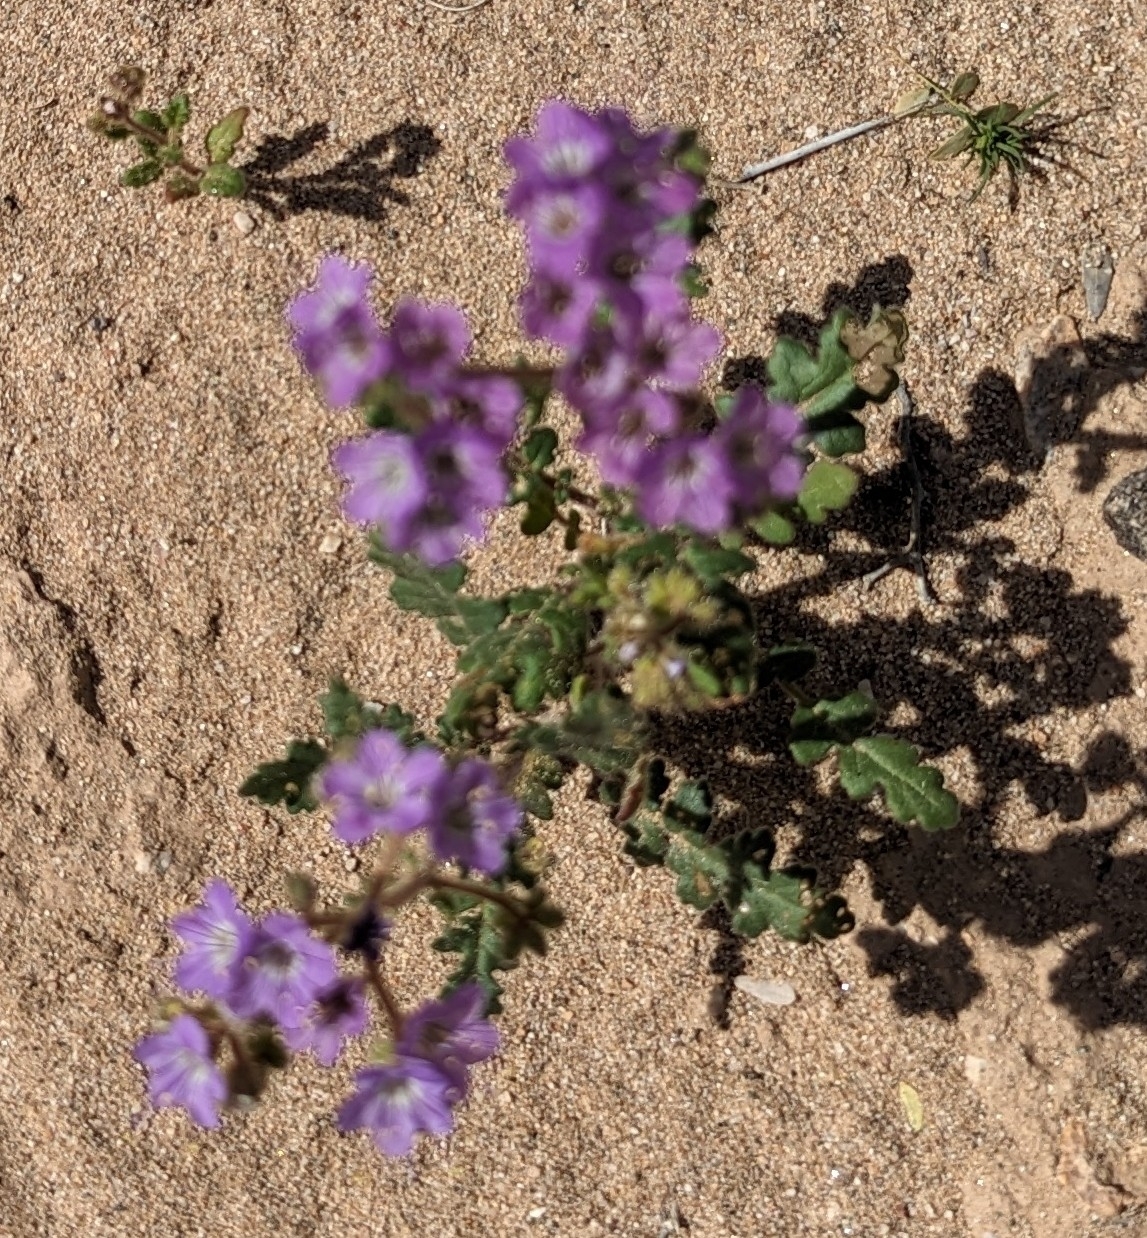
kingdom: Plantae
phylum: Tracheophyta
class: Magnoliopsida
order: Boraginales
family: Hydrophyllaceae
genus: Phacelia
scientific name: Phacelia crenulata
